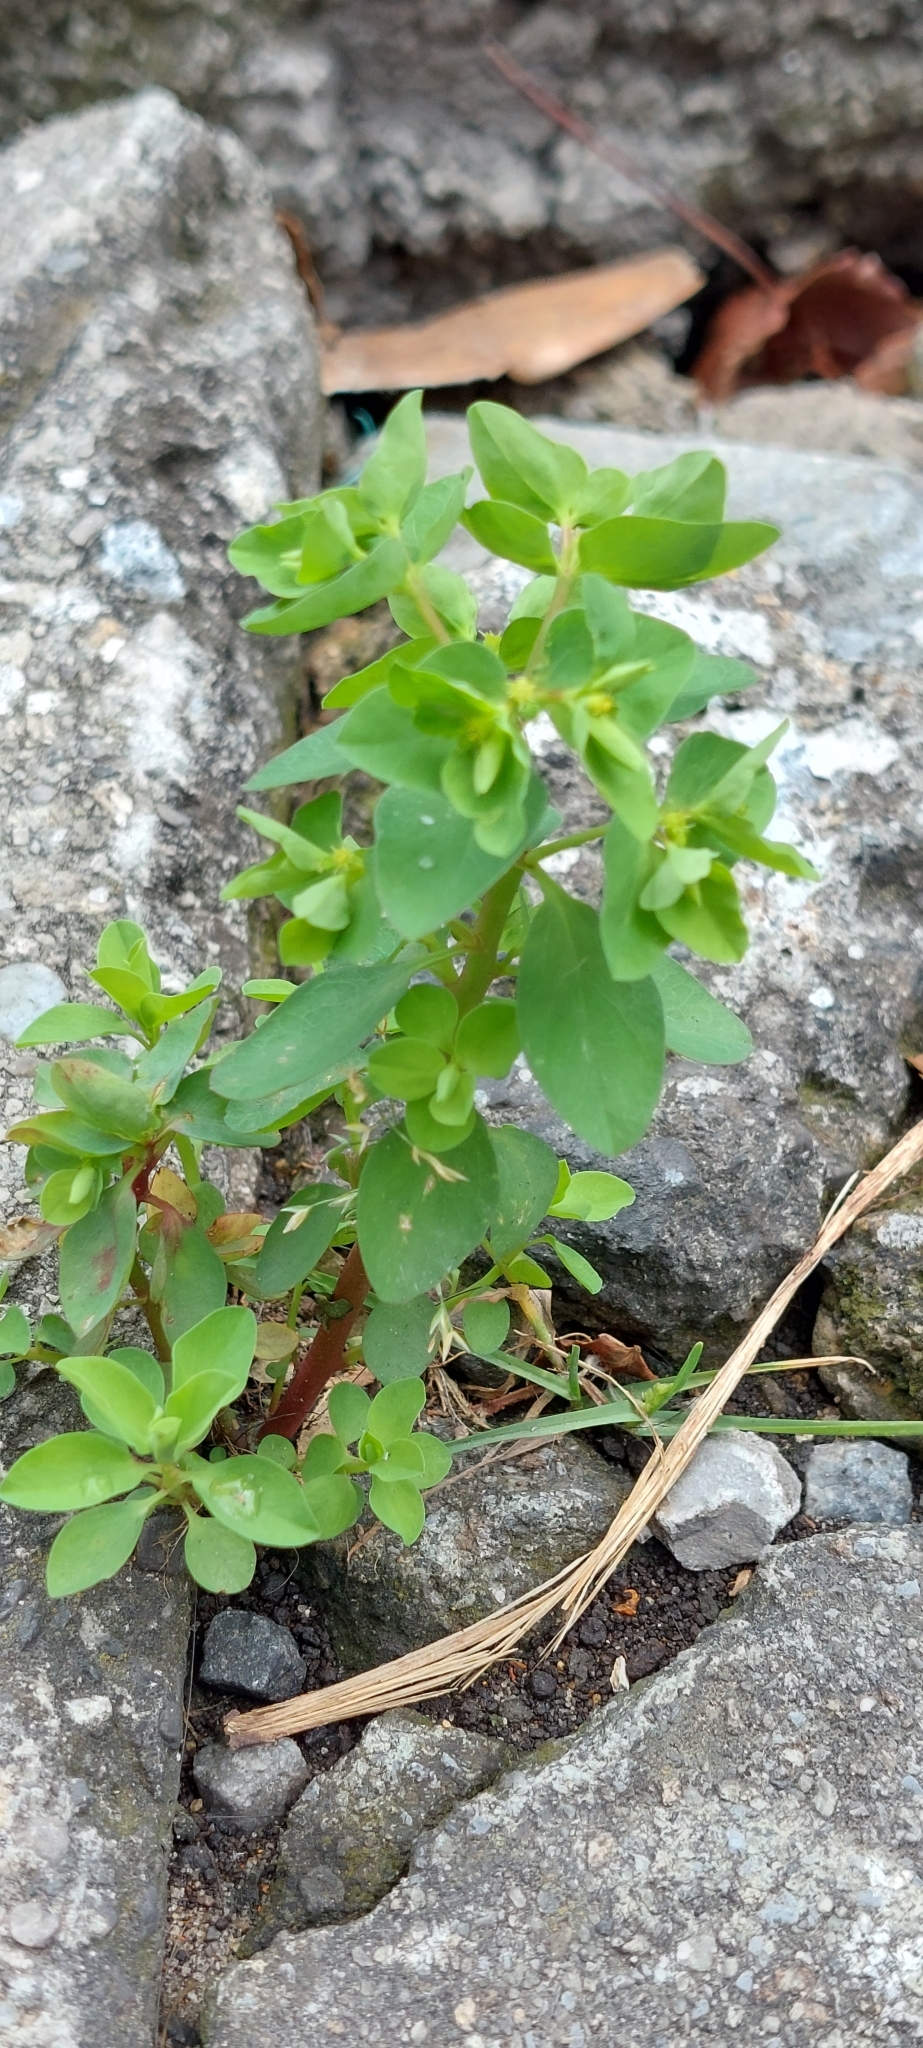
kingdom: Plantae
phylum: Tracheophyta
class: Magnoliopsida
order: Malpighiales
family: Euphorbiaceae
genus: Euphorbia
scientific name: Euphorbia peplus
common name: Petty spurge
